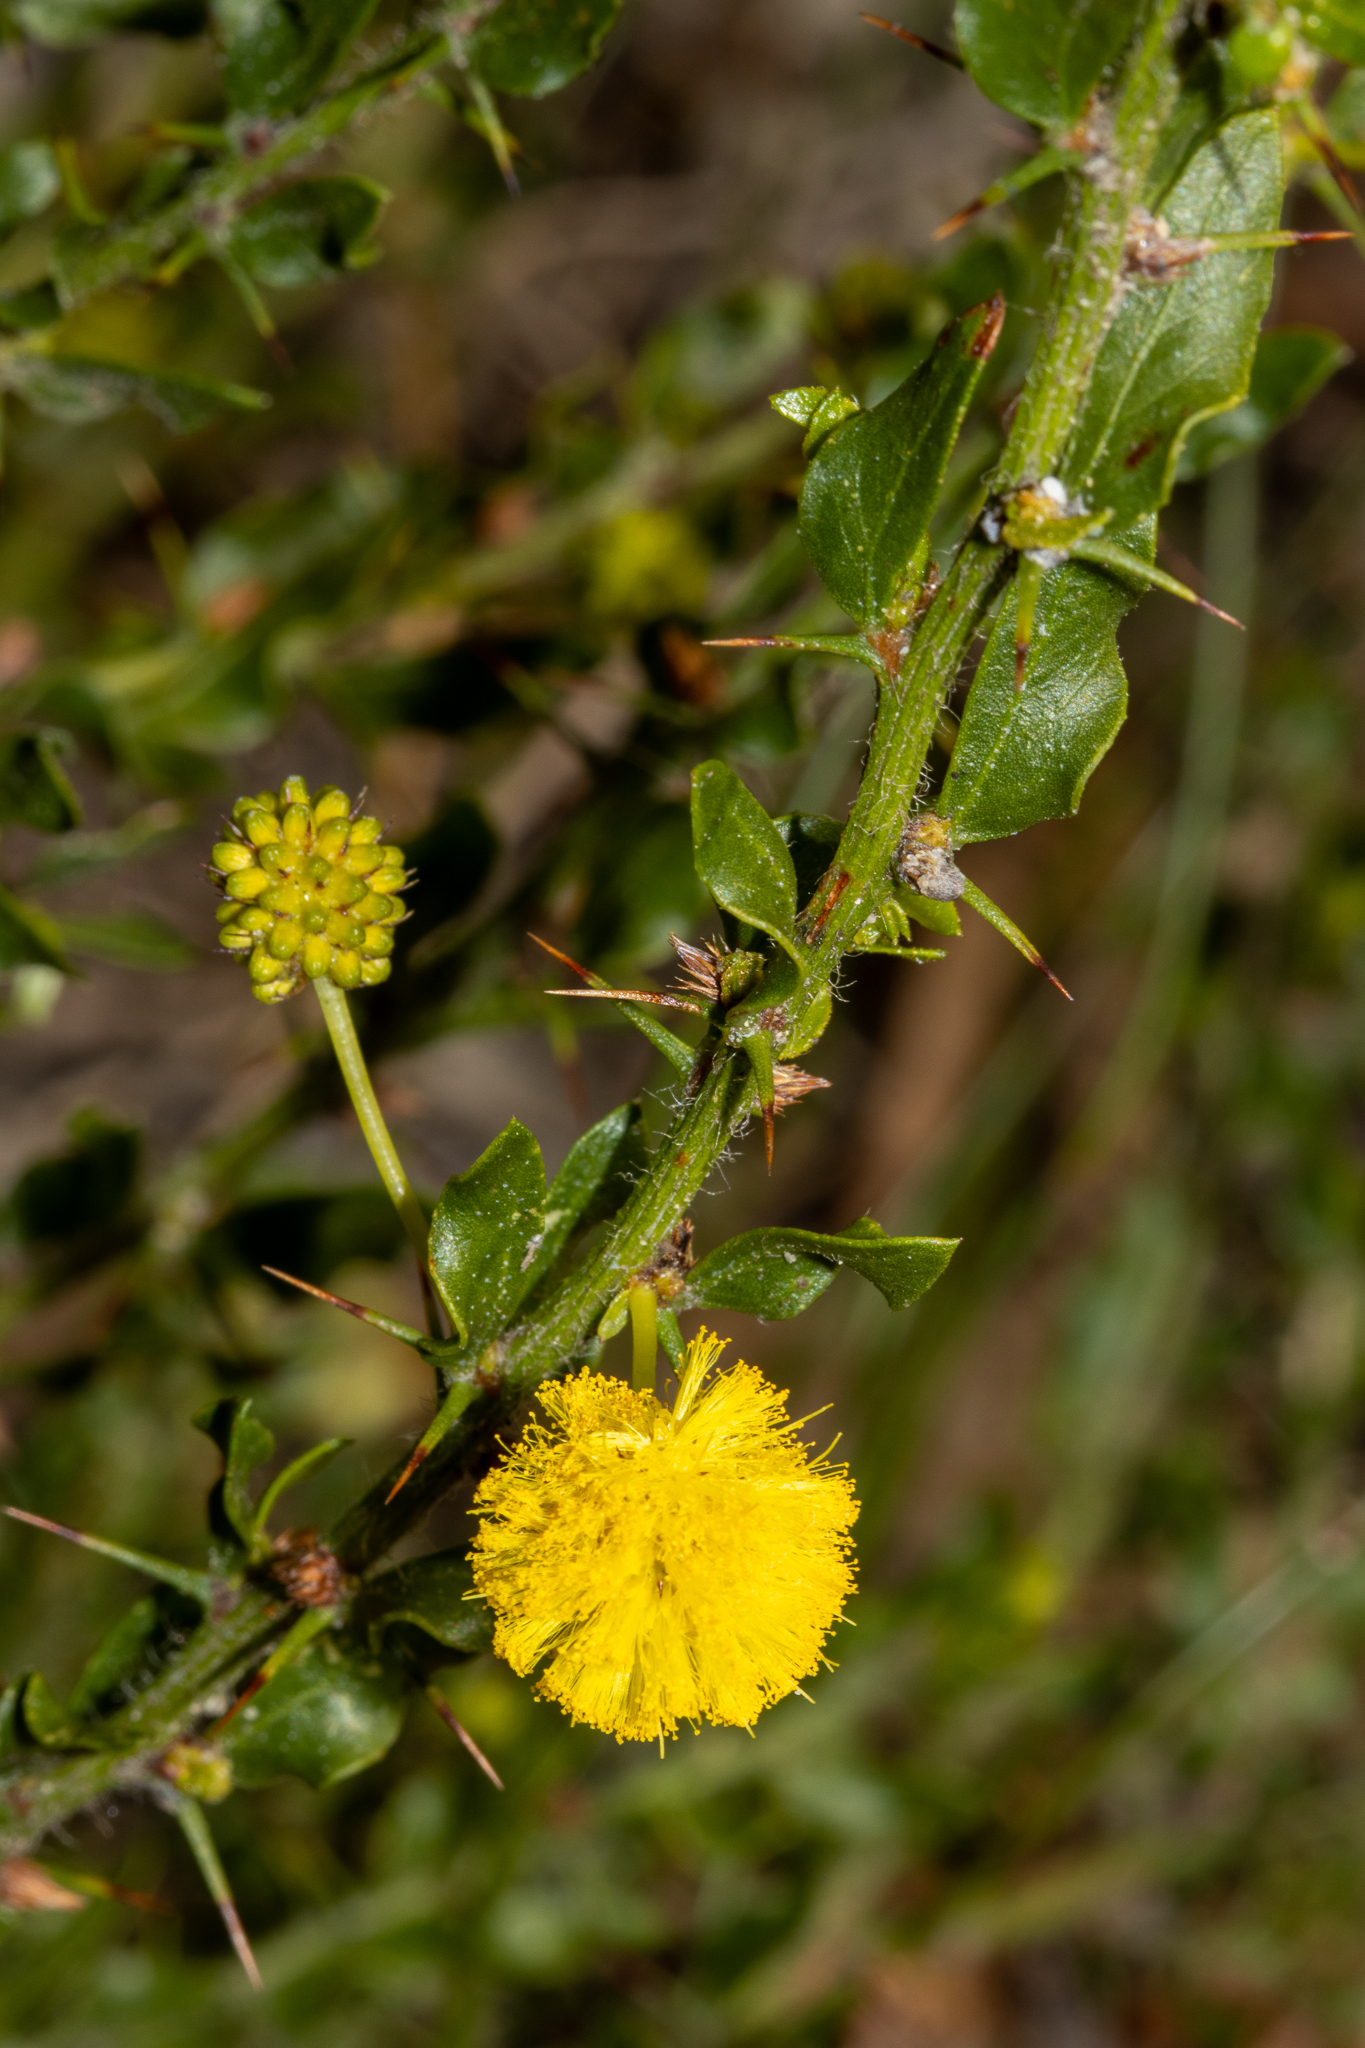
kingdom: Plantae
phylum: Tracheophyta
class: Magnoliopsida
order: Fabales
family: Fabaceae
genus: Acacia
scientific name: Acacia paradoxa
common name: Paradox acacia
